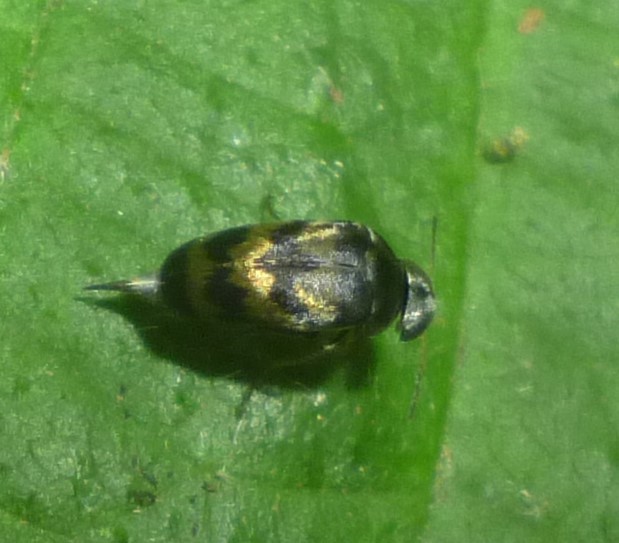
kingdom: Animalia
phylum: Arthropoda
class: Insecta
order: Coleoptera
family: Mordellidae
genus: Paramordellaria
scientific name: Paramordellaria triloba
